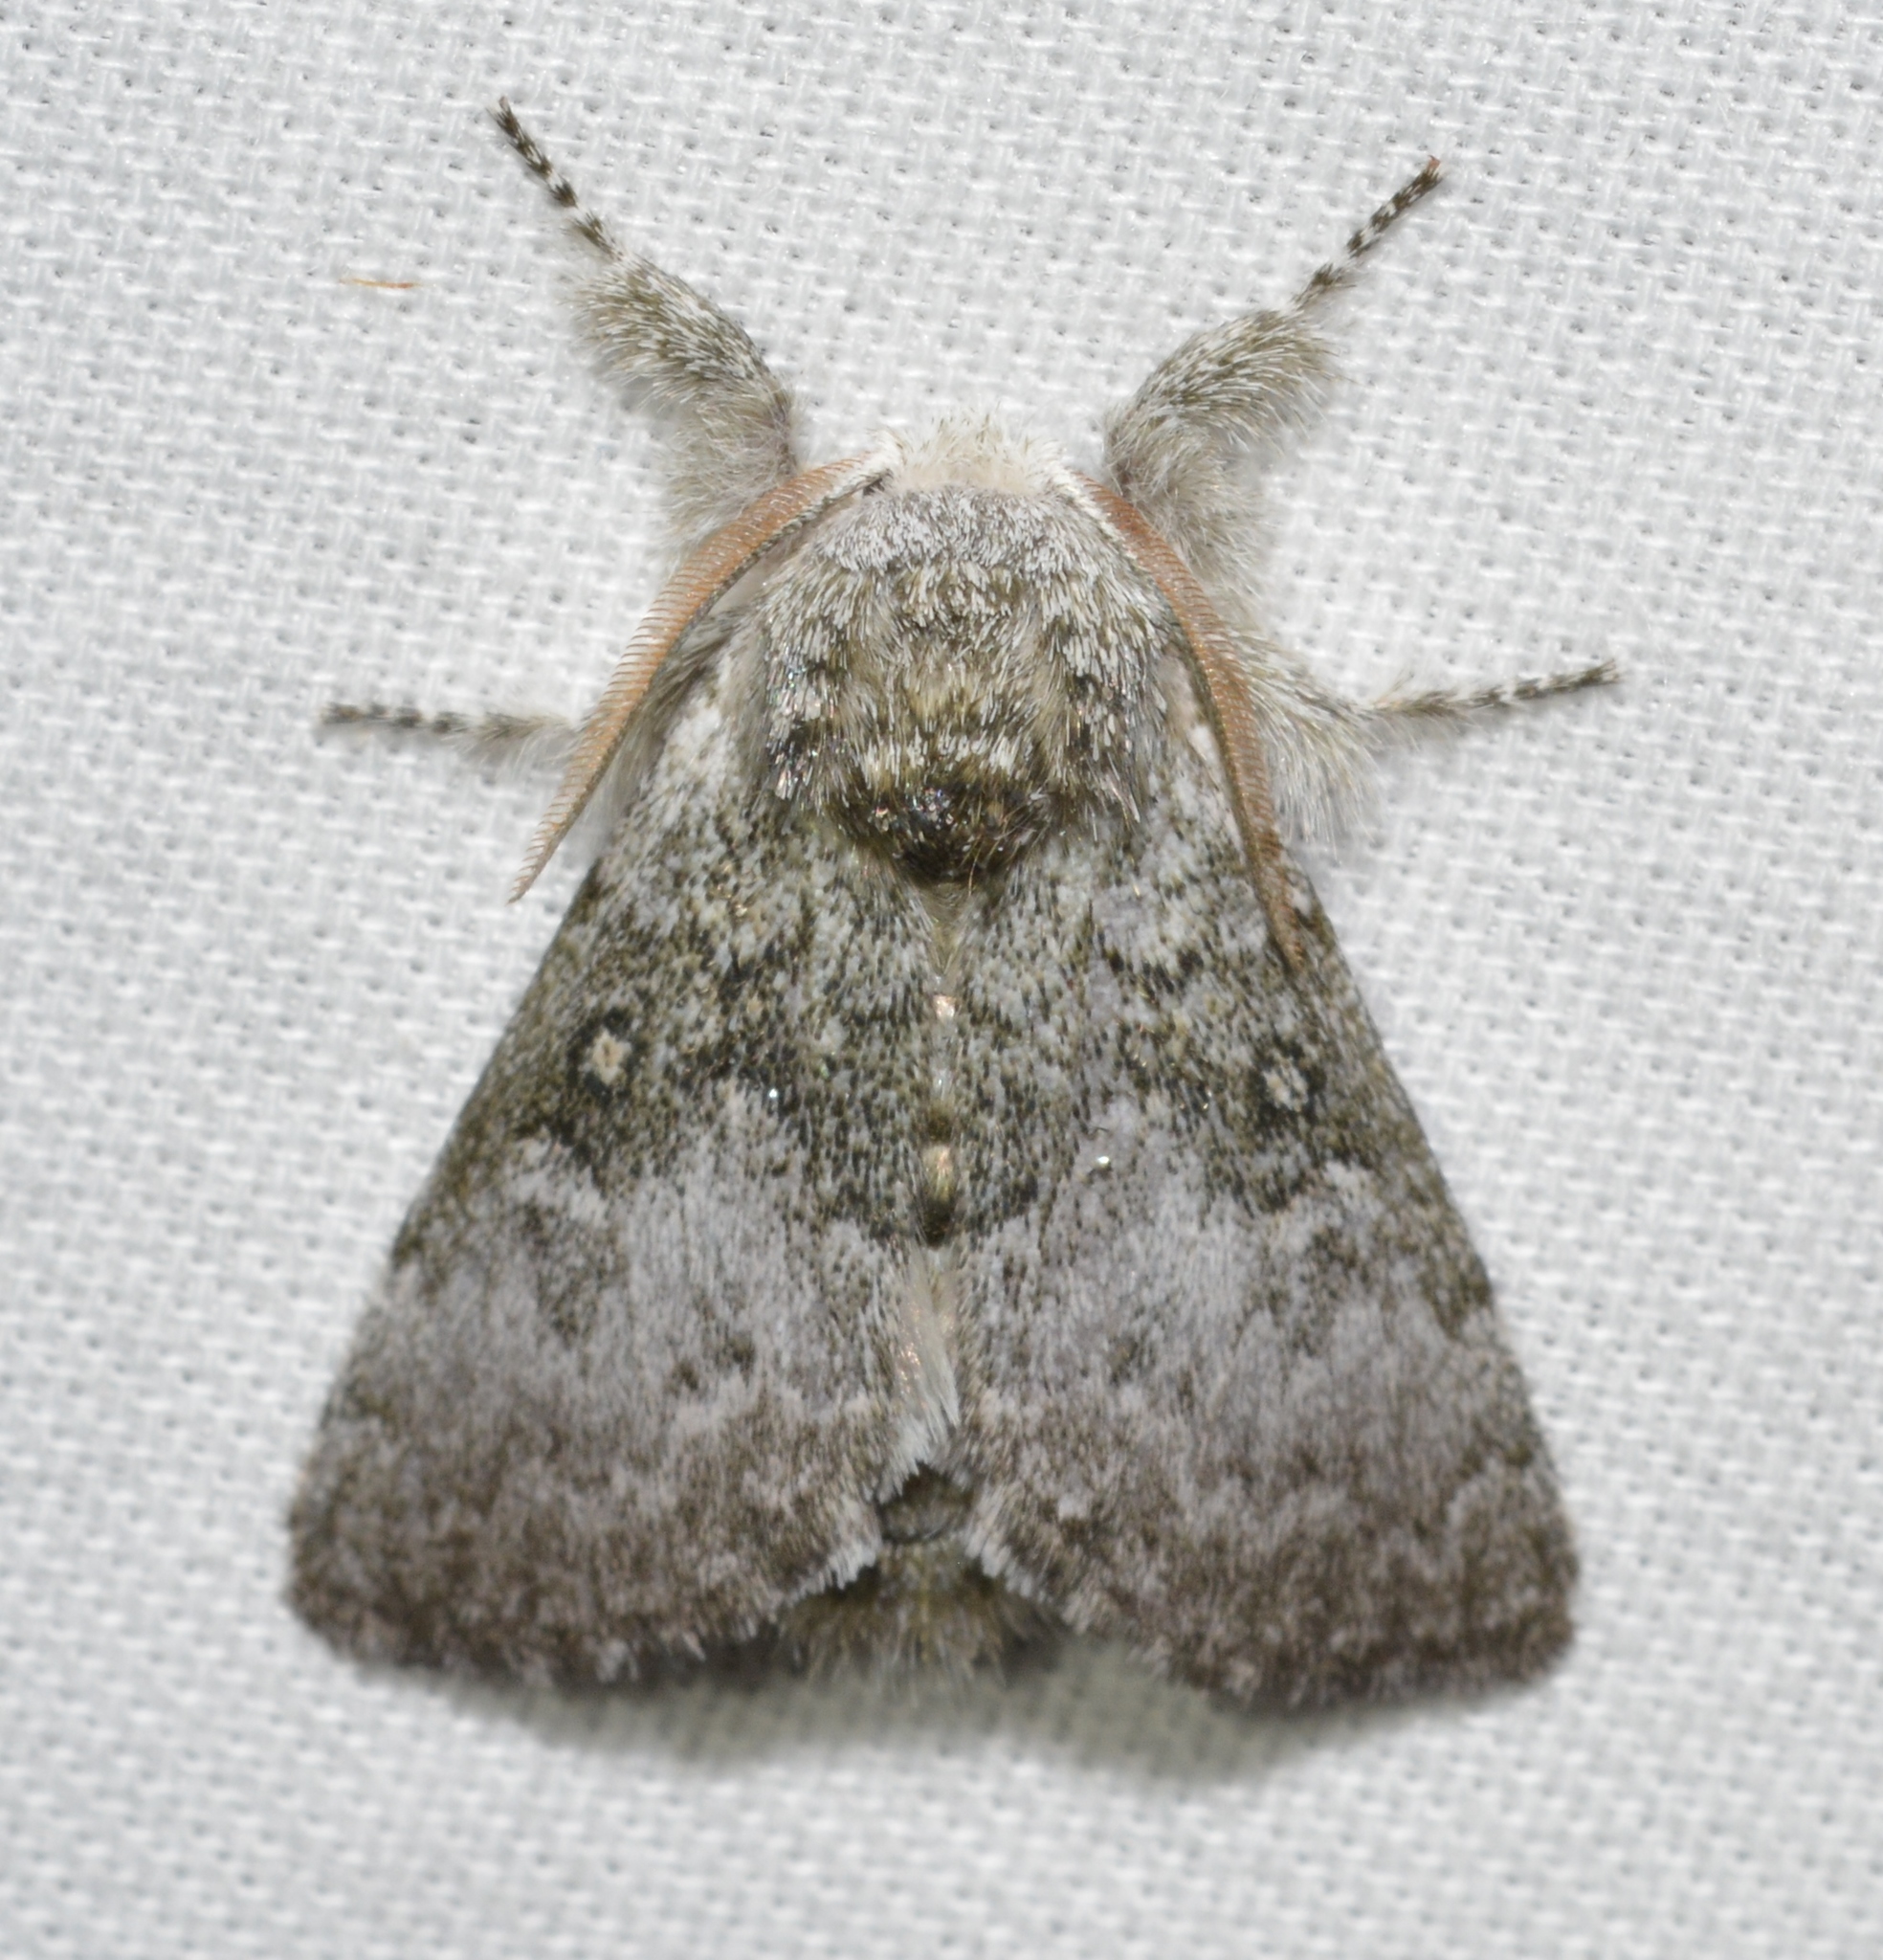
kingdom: Animalia
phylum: Arthropoda
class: Insecta
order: Lepidoptera
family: Noctuidae
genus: Colocasia
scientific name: Colocasia propinquilinea
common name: Close-banded demas
